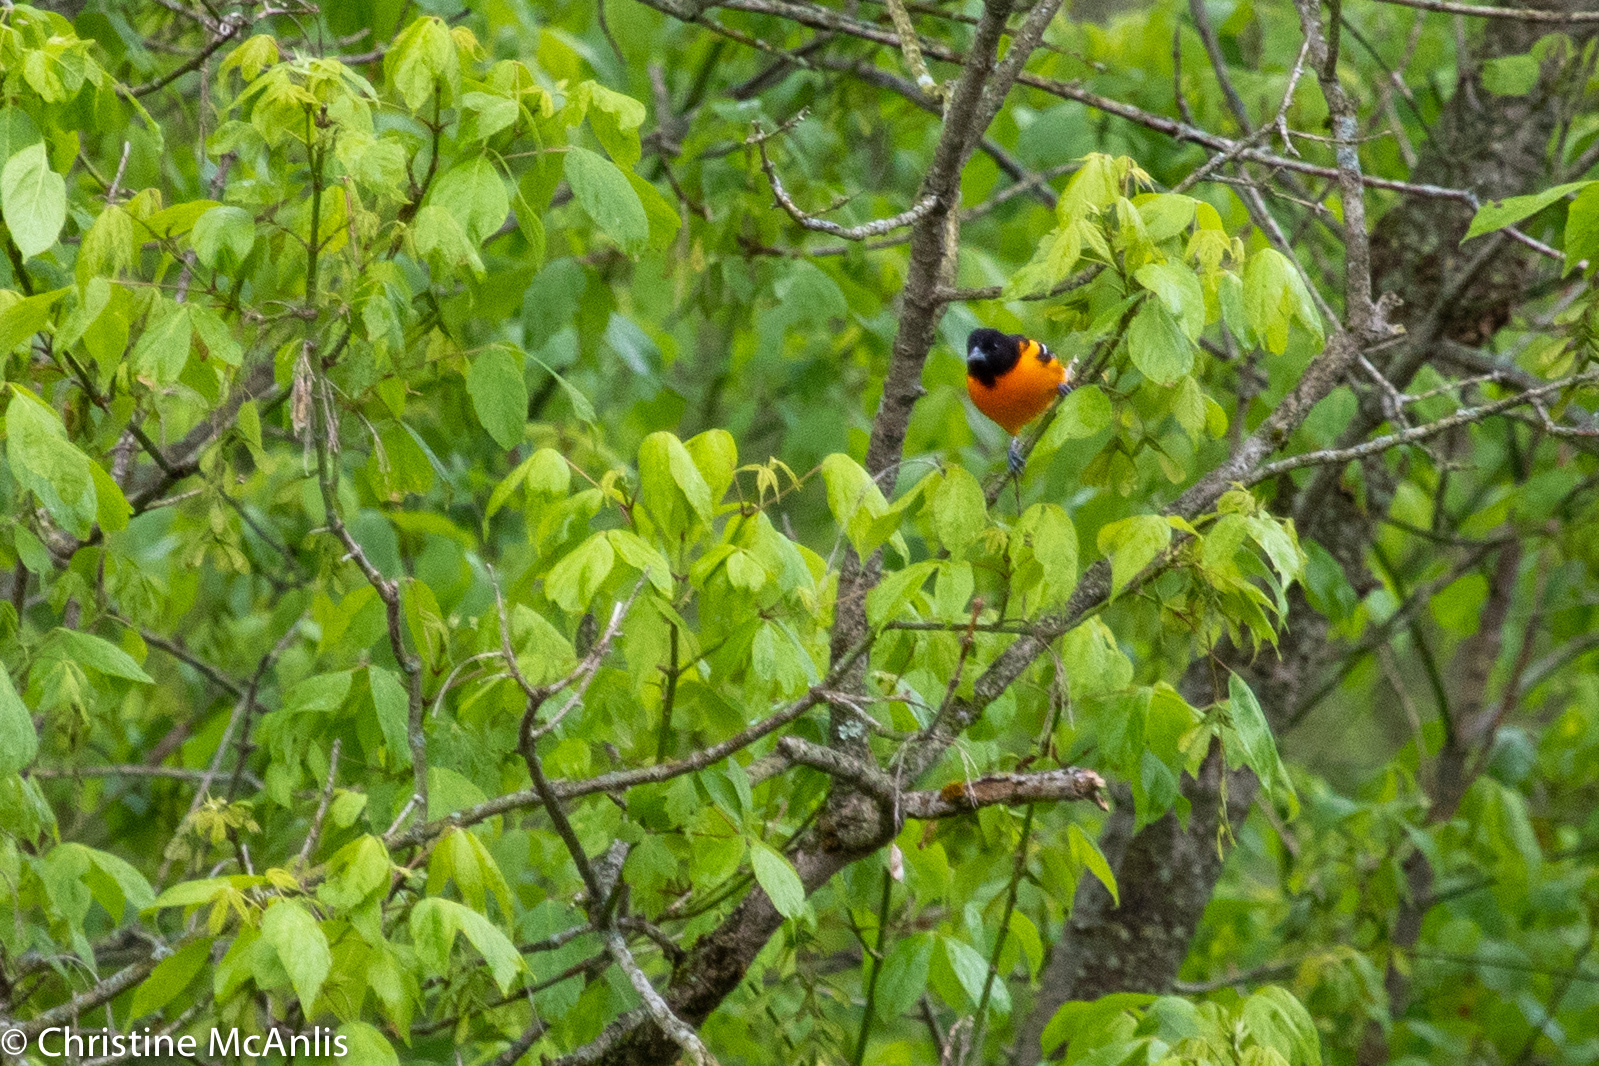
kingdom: Animalia
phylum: Chordata
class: Aves
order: Passeriformes
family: Icteridae
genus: Icterus
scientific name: Icterus galbula
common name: Baltimore oriole
